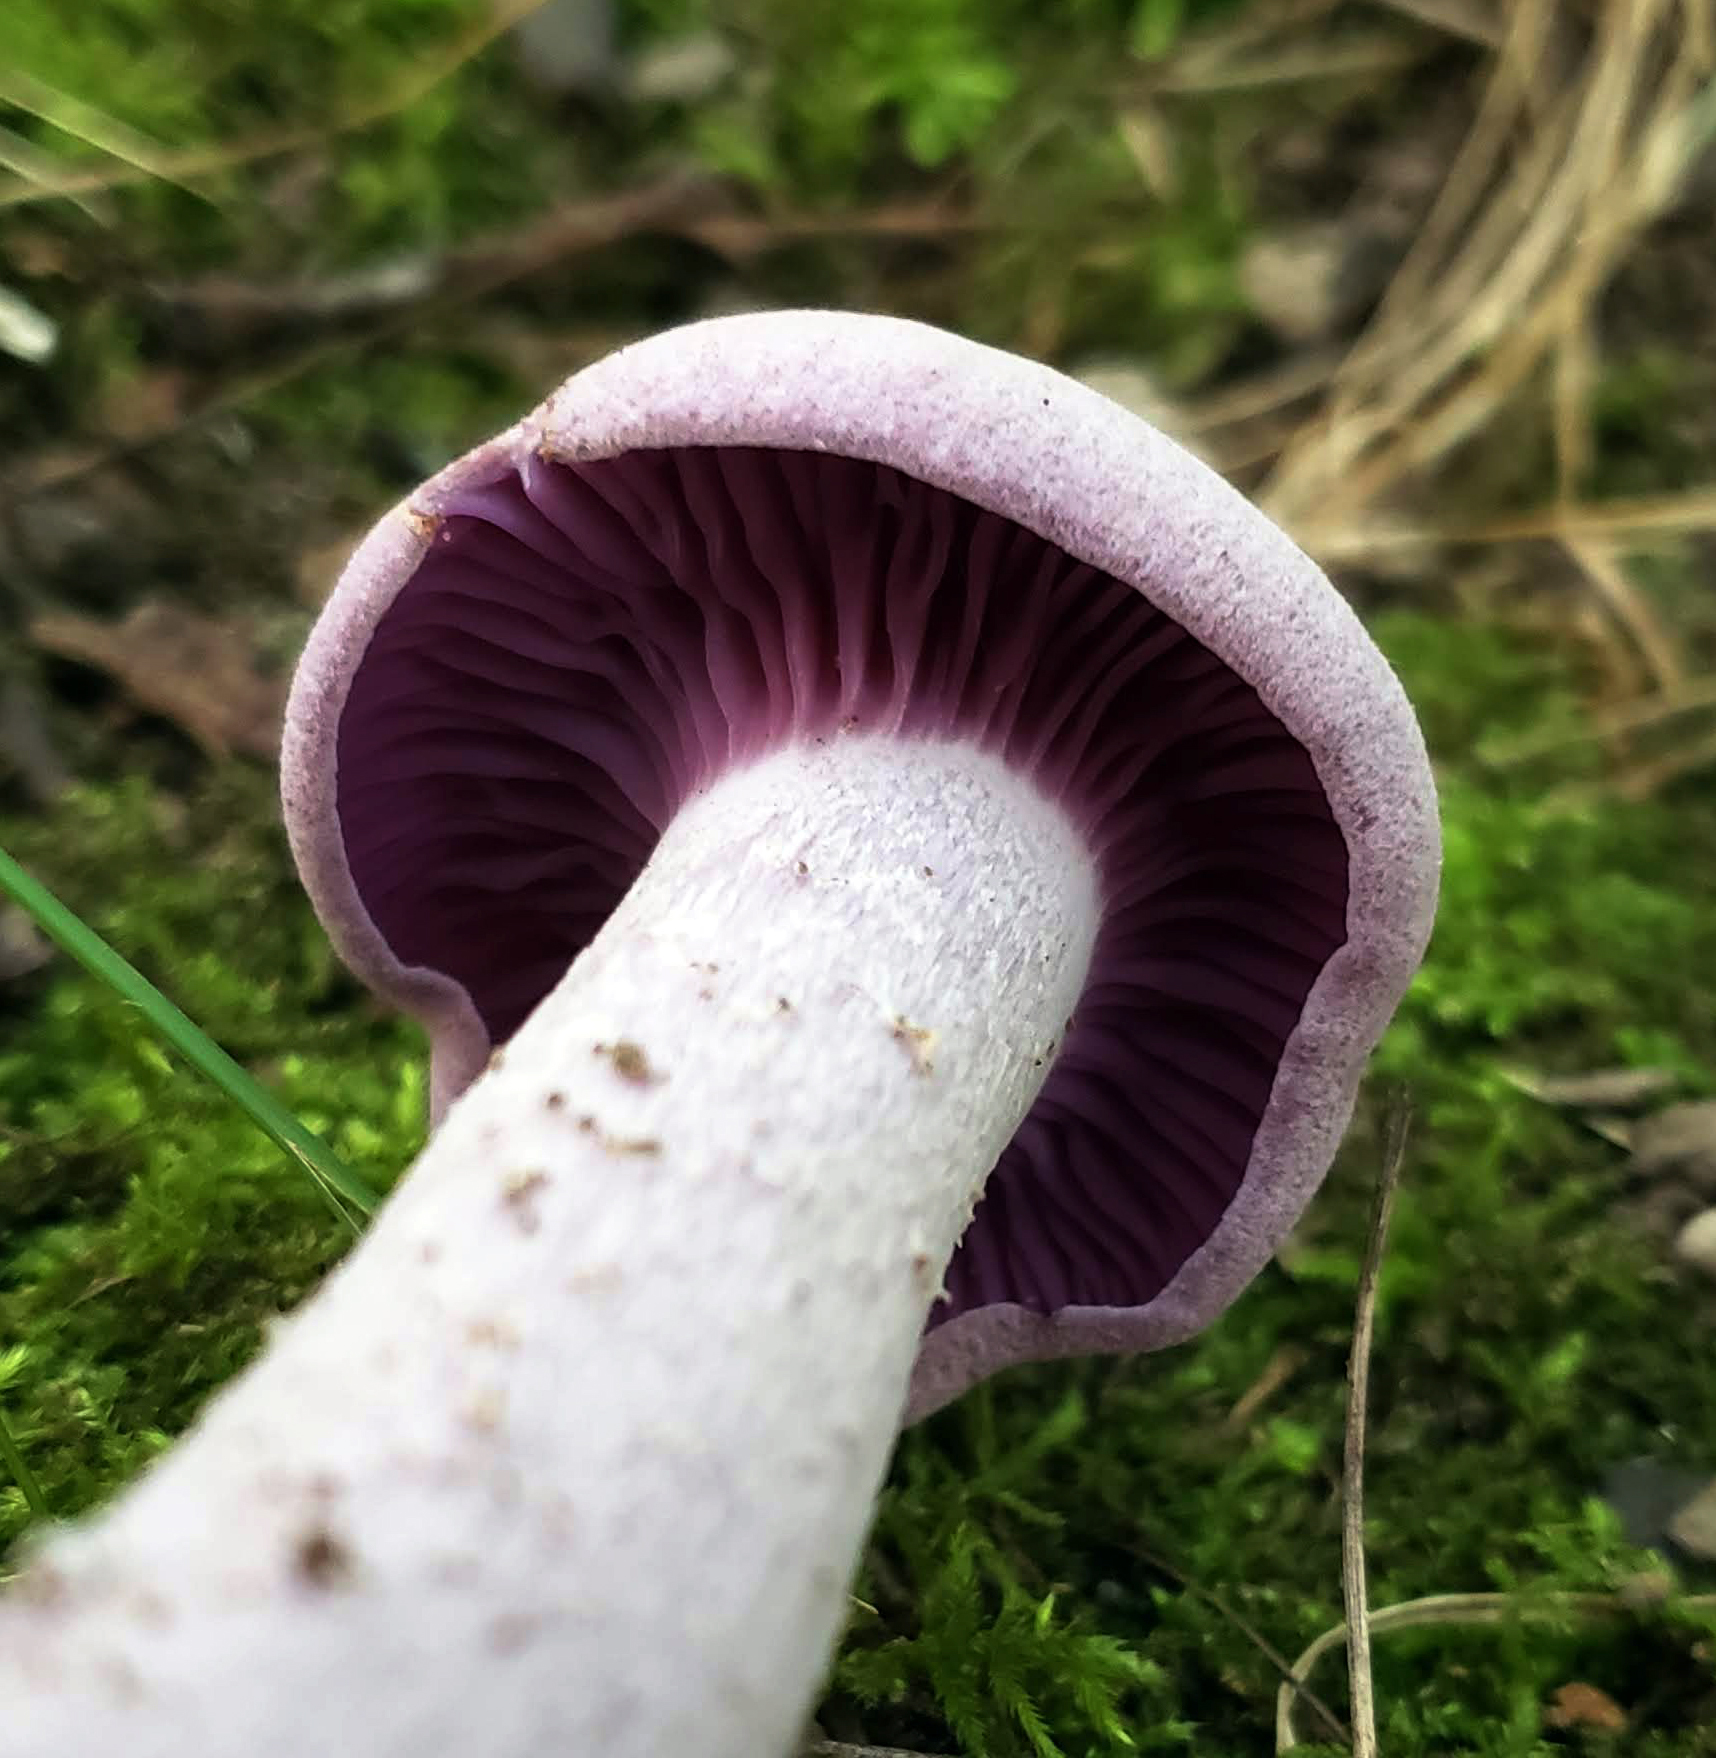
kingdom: Fungi
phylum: Basidiomycota
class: Agaricomycetes
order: Agaricales
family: Hydnangiaceae
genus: Laccaria
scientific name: Laccaria ochropurpurea
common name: Purple laccaria
